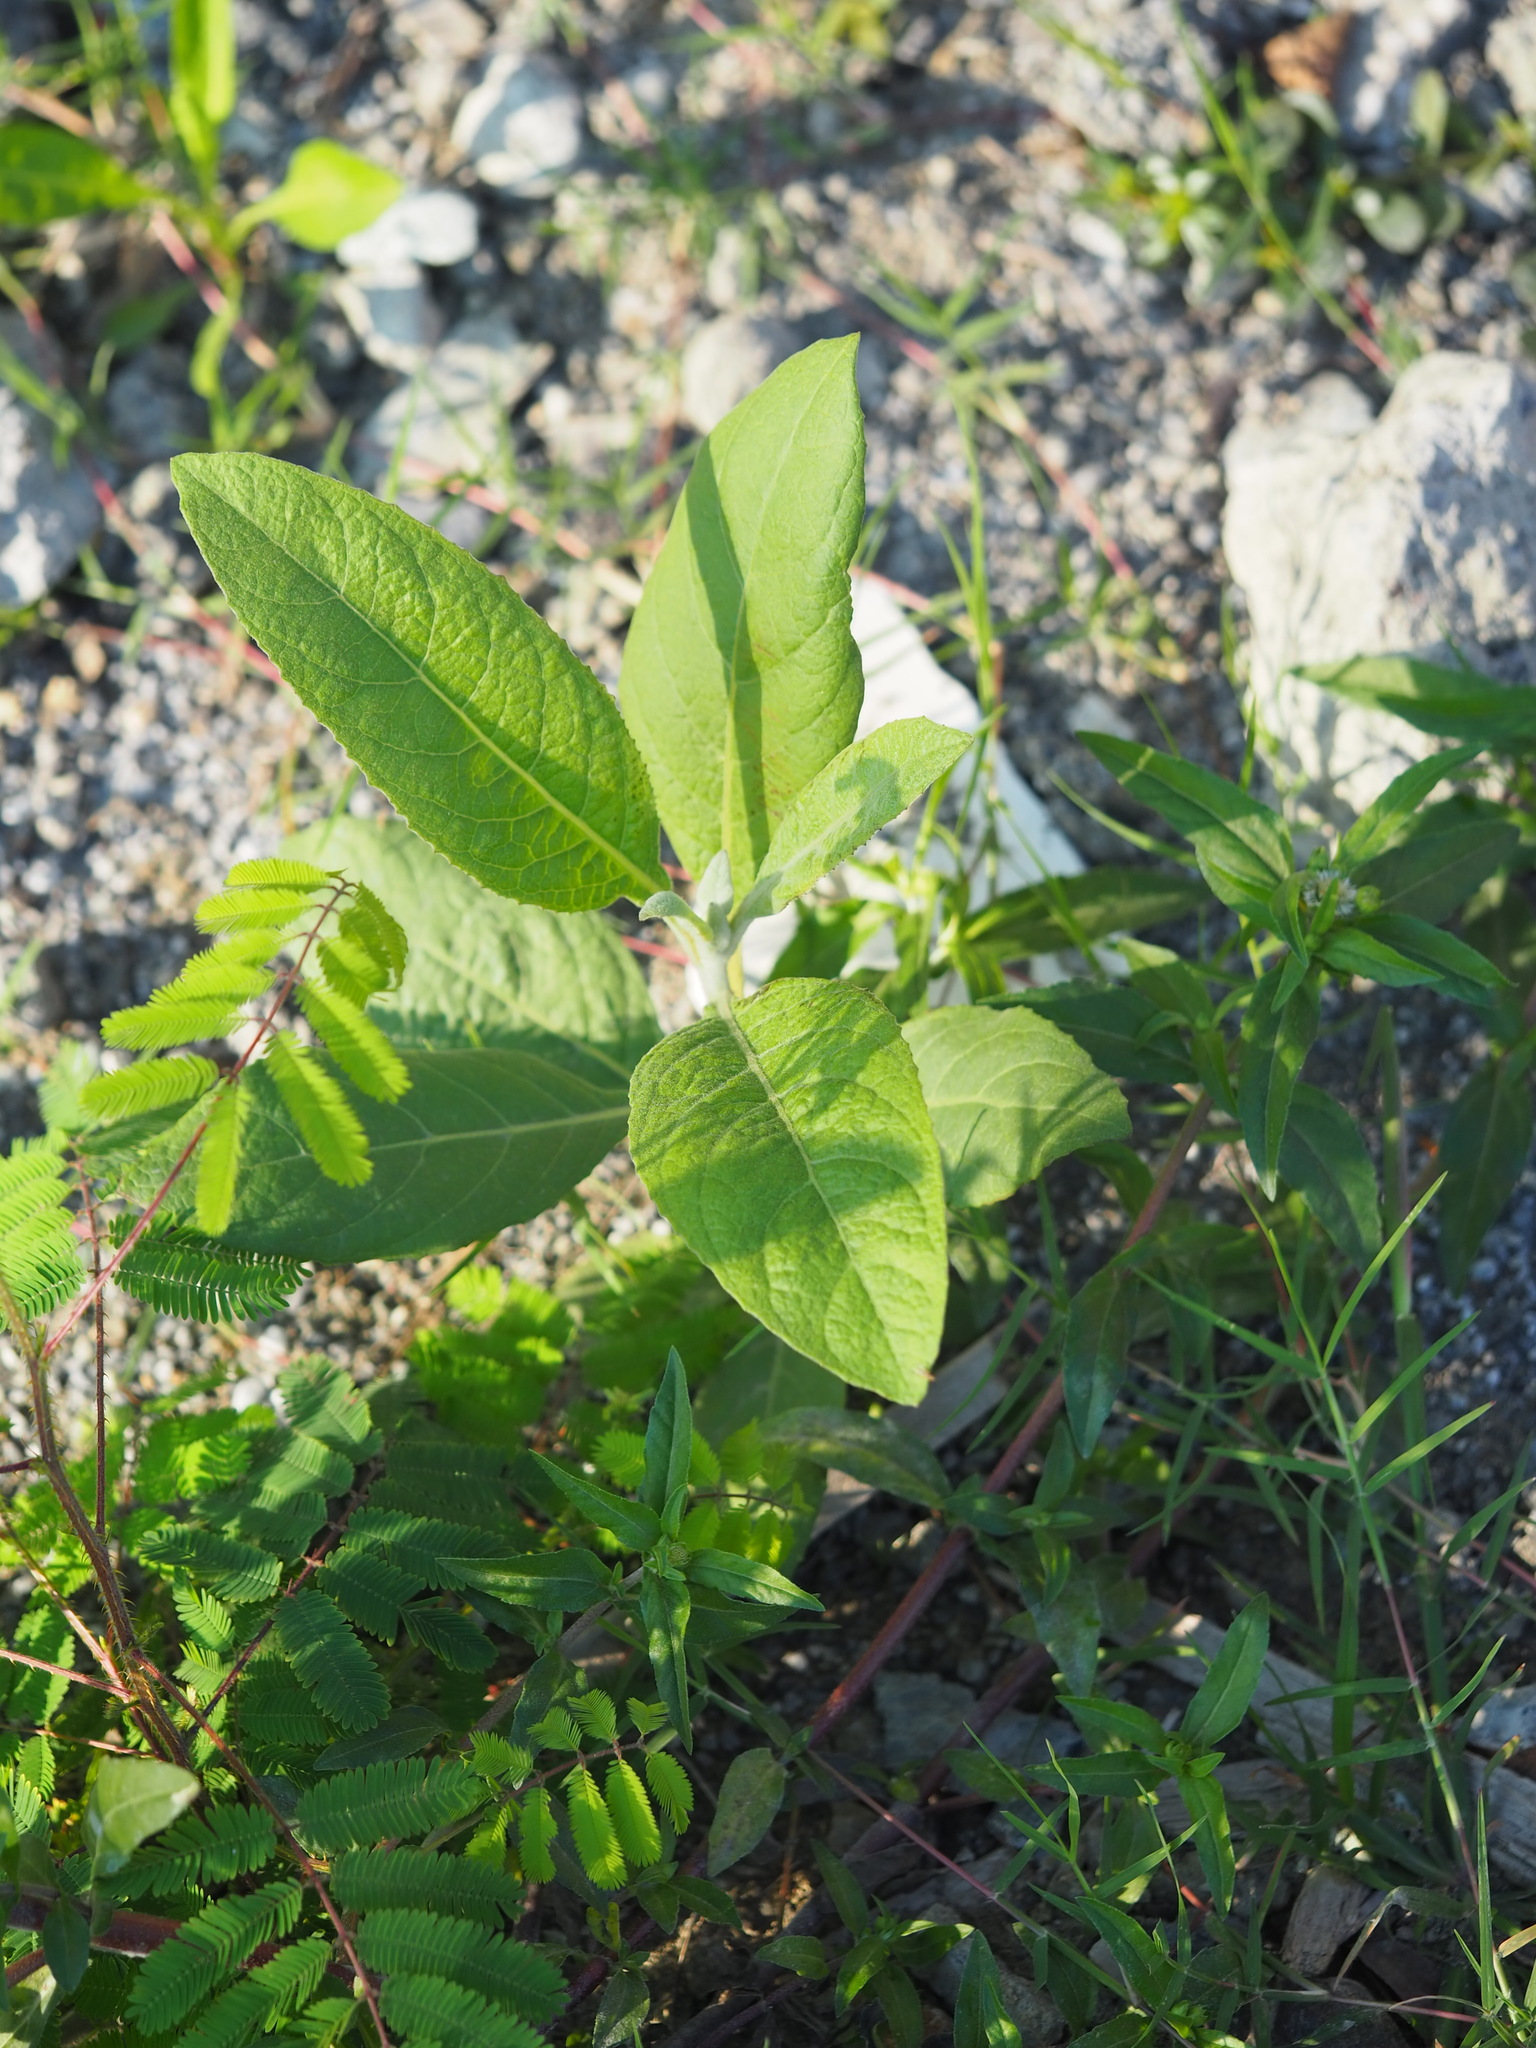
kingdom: Plantae
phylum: Tracheophyta
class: Magnoliopsida
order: Asterales
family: Asteraceae
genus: Pluchea
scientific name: Pluchea carolinensis
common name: Marsh fleabane
